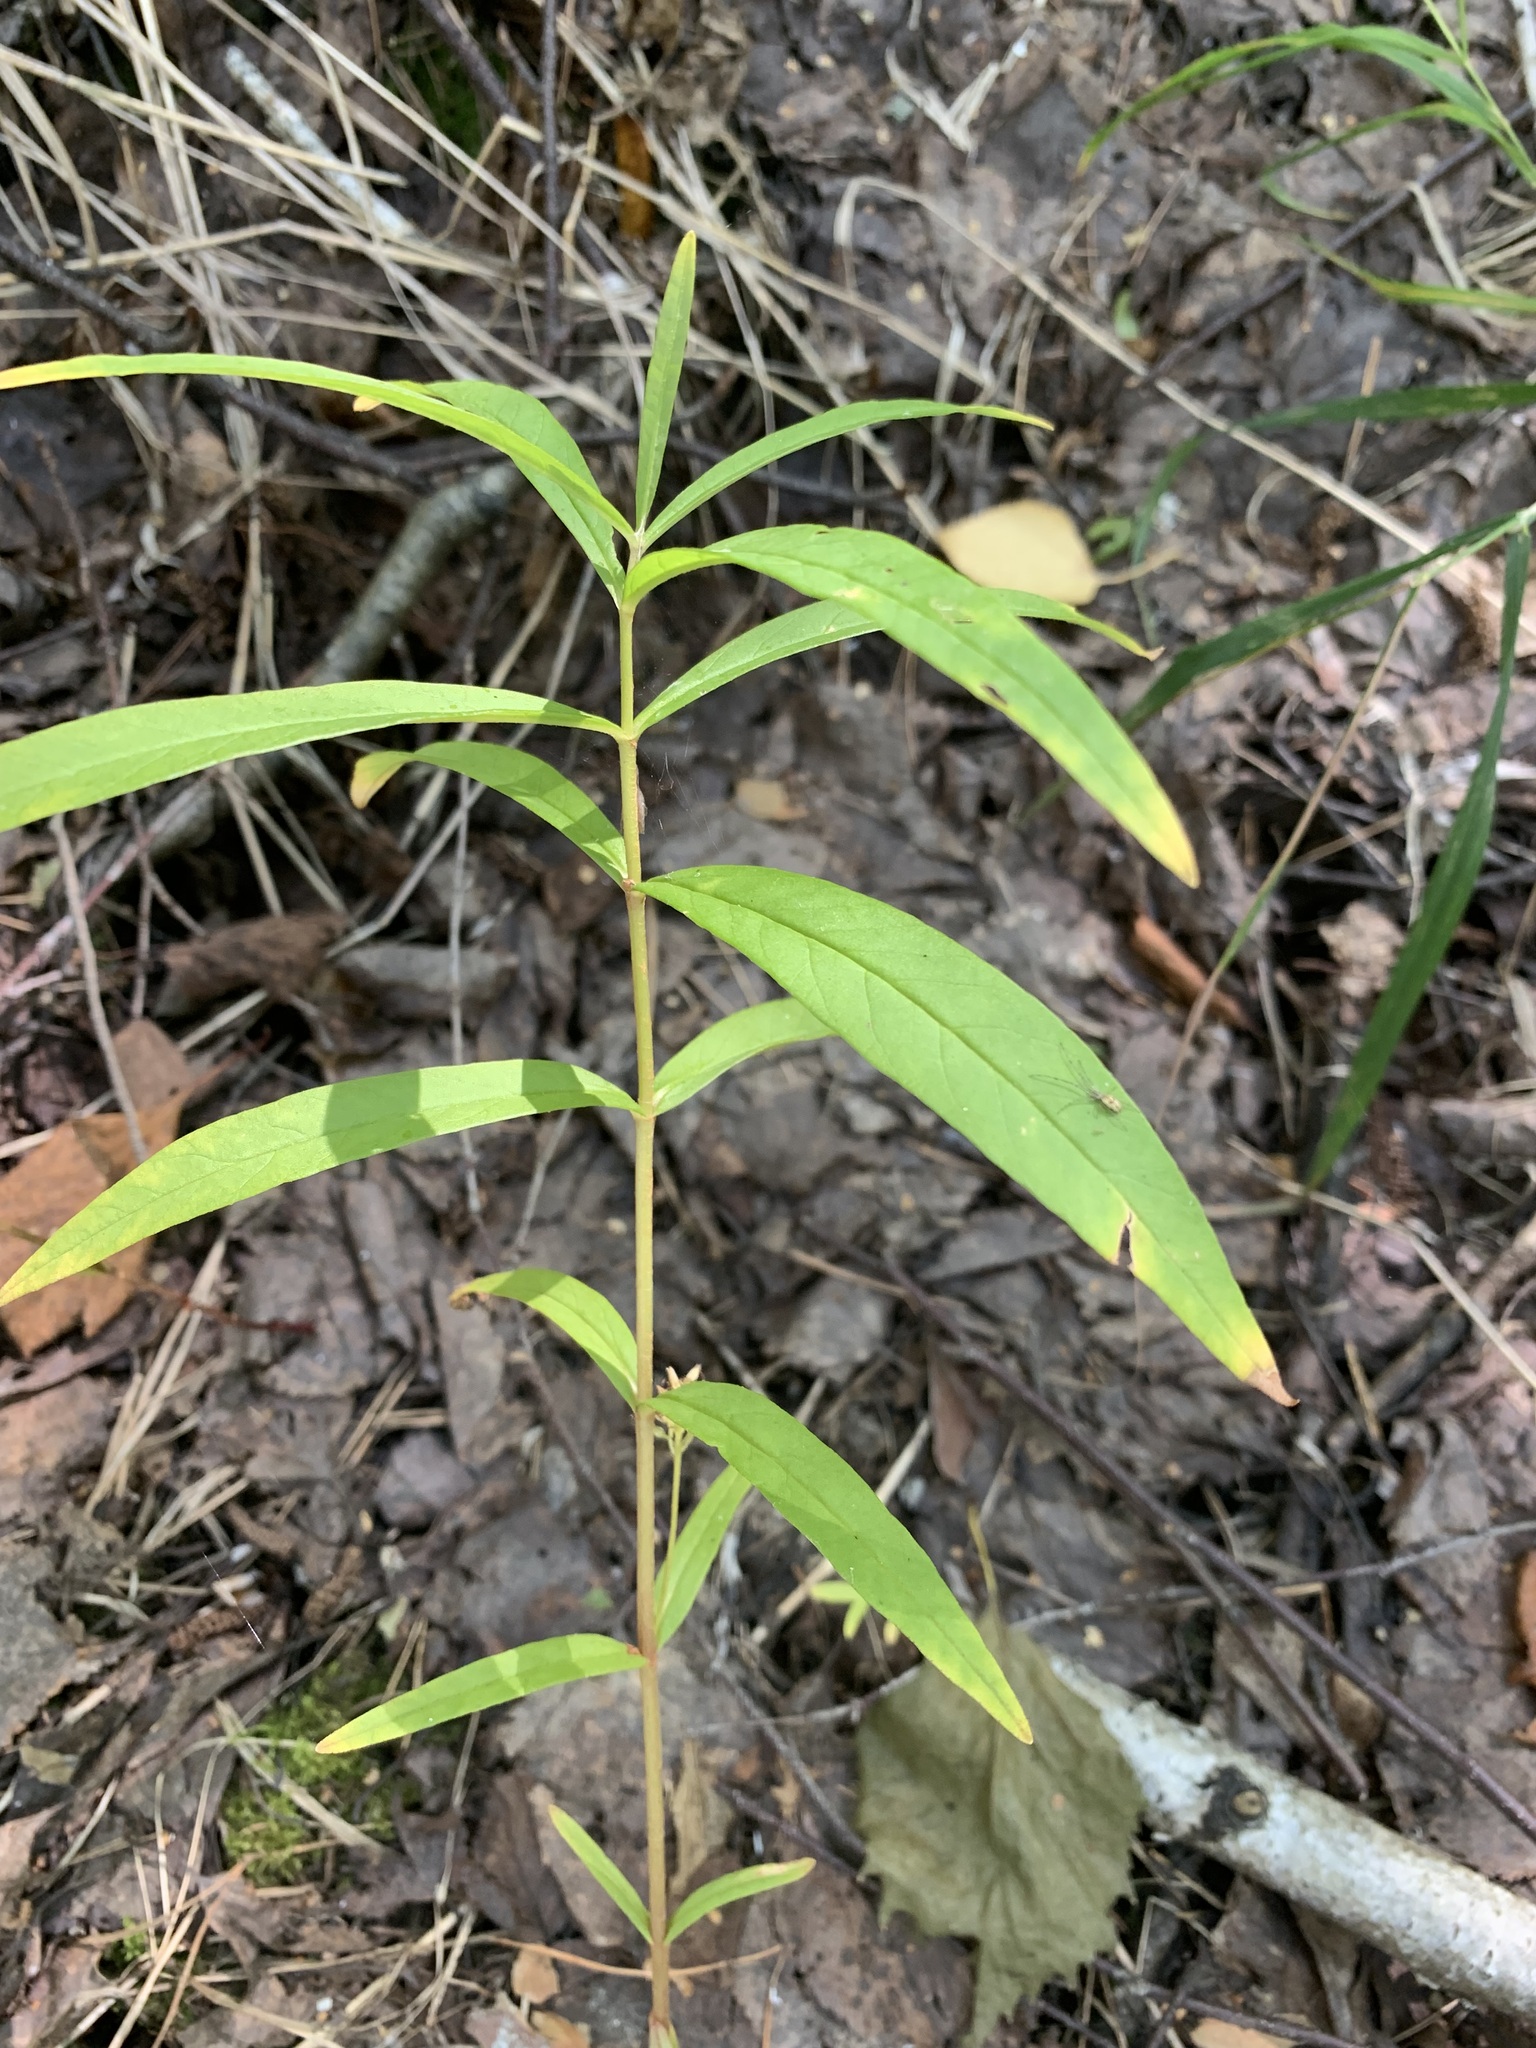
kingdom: Plantae
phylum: Tracheophyta
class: Magnoliopsida
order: Ericales
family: Primulaceae
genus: Lysimachia
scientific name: Lysimachia thyrsiflora
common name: Tufted loosestrife
